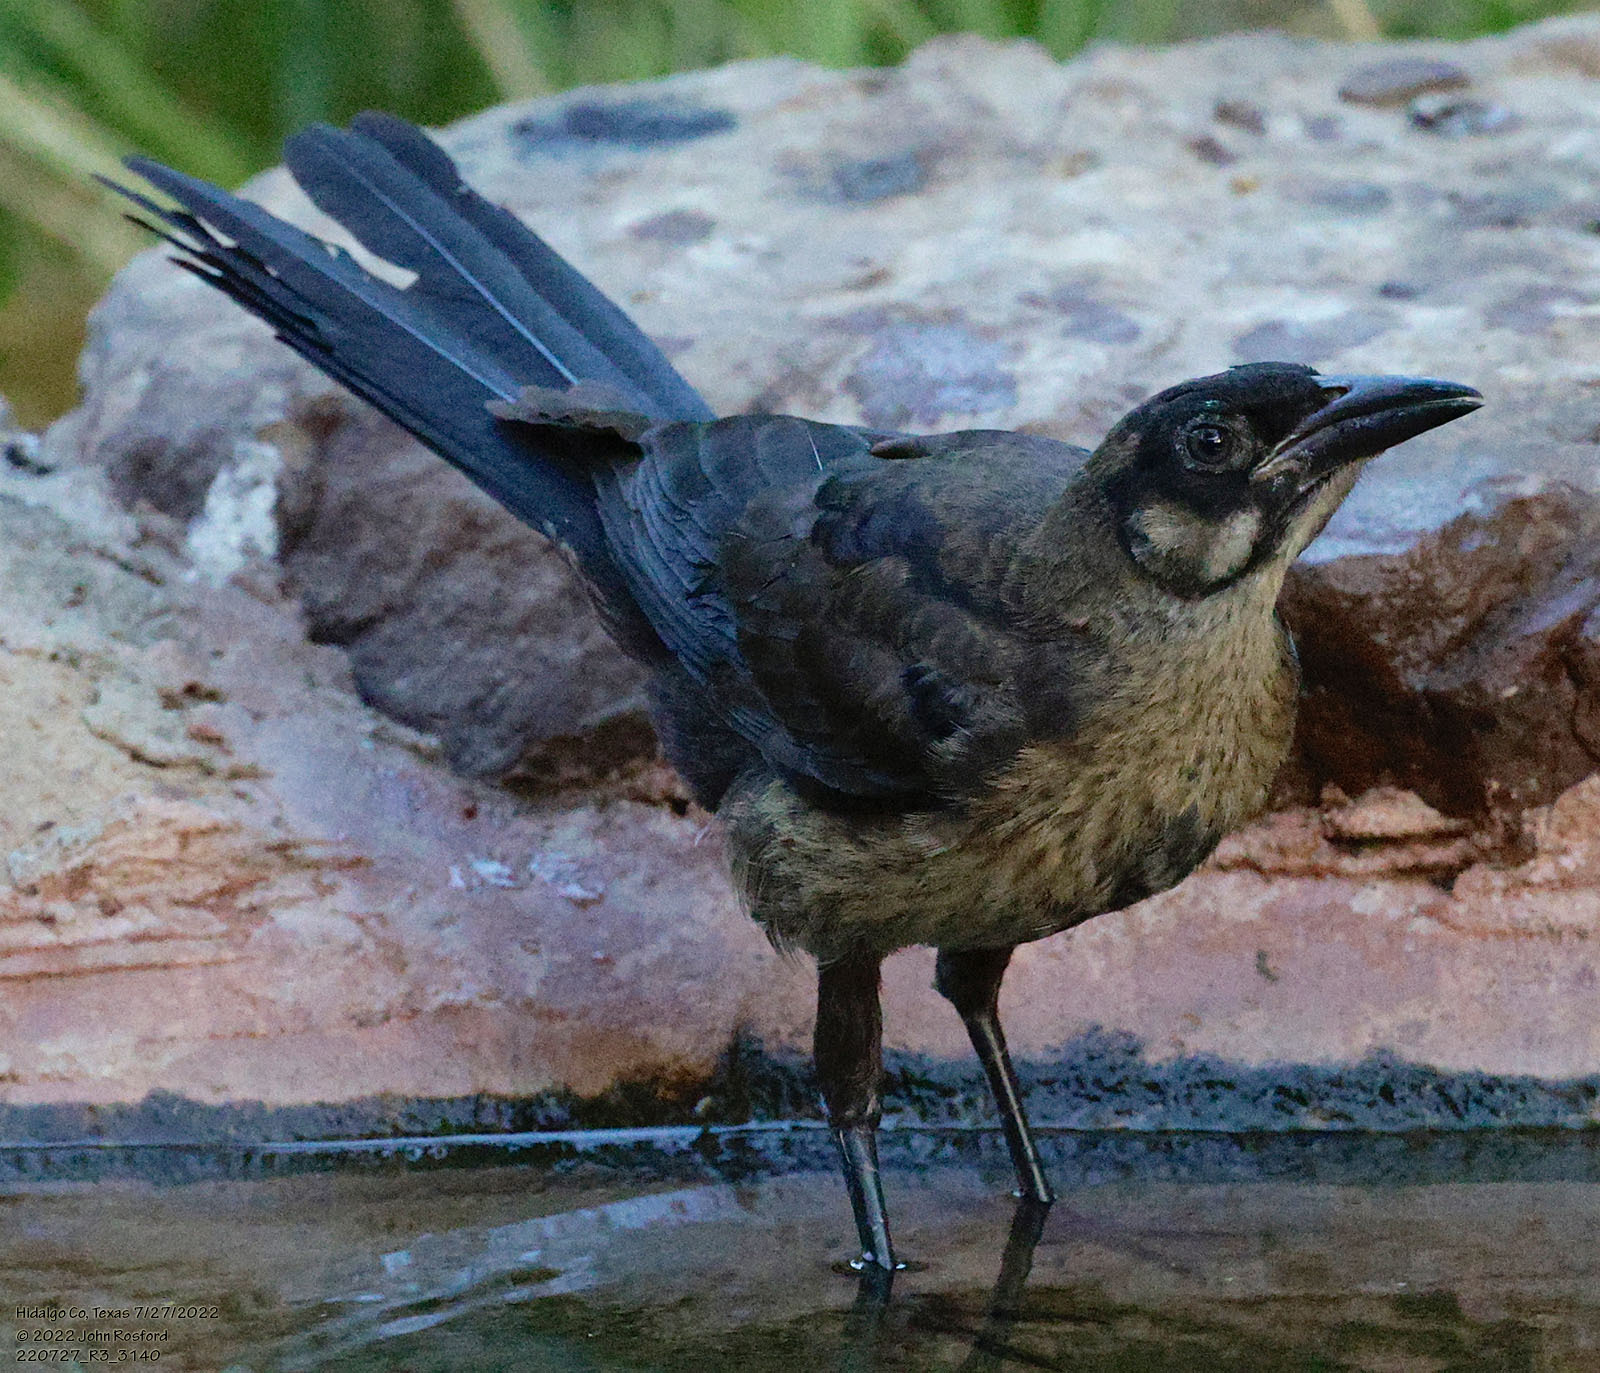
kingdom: Animalia
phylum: Chordata
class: Aves
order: Passeriformes
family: Icteridae
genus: Quiscalus
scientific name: Quiscalus mexicanus
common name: Great-tailed grackle
